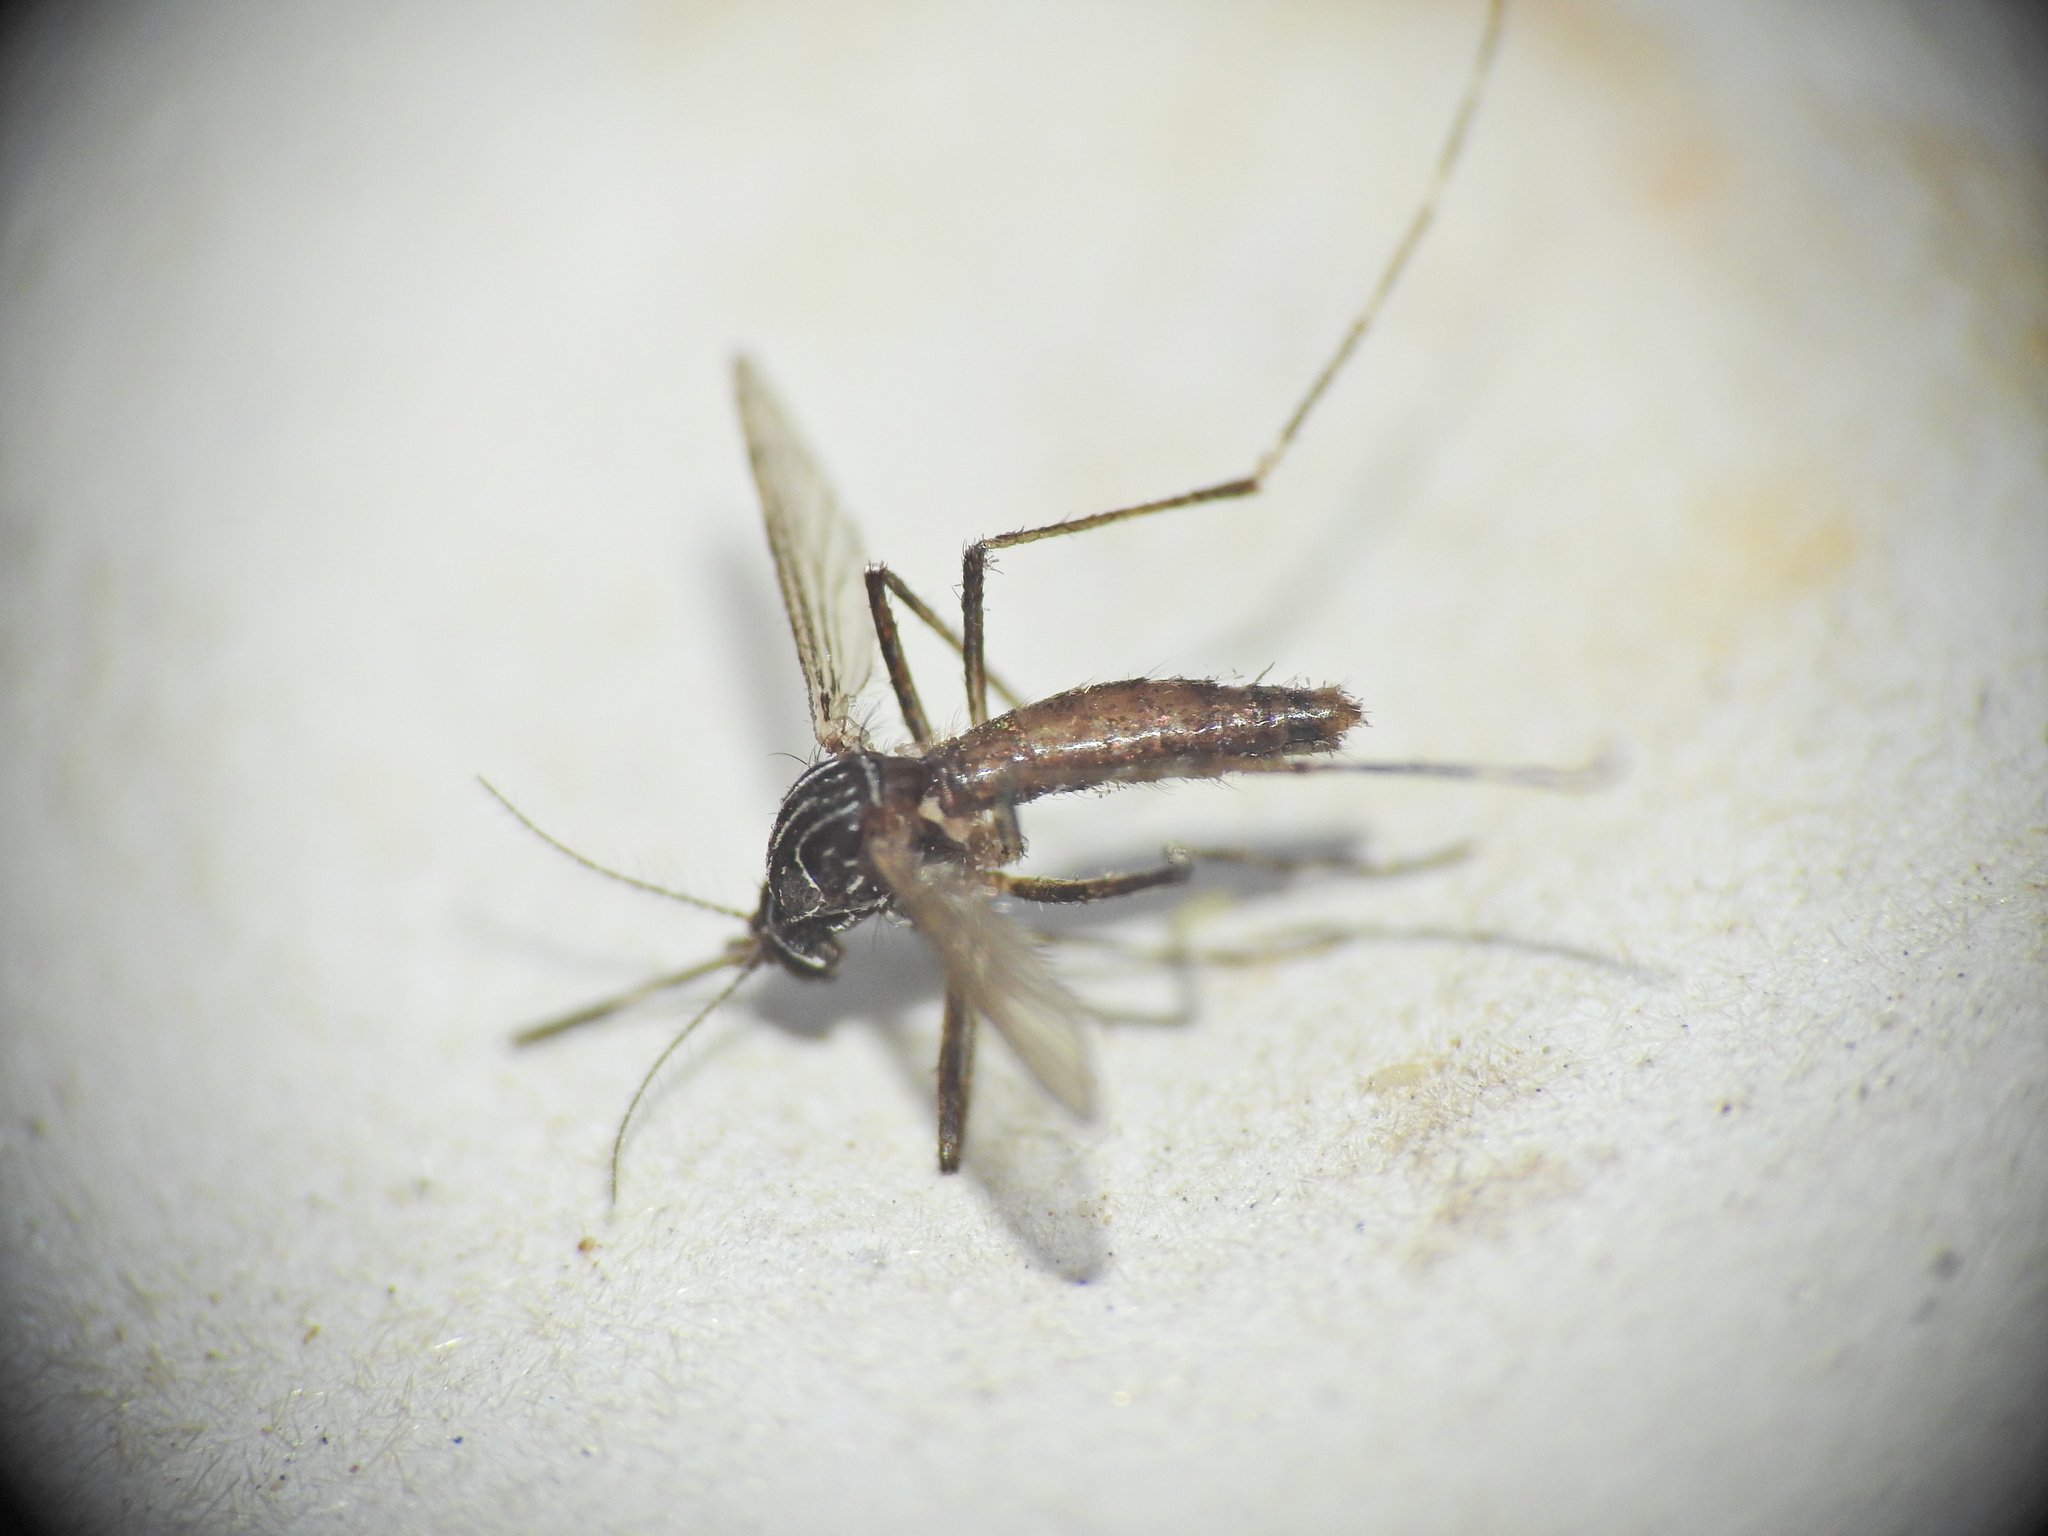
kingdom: Animalia
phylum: Arthropoda
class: Insecta
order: Diptera
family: Culicidae
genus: Aedes
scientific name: Aedes notoscriptus
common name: Australian backyard mosquito
